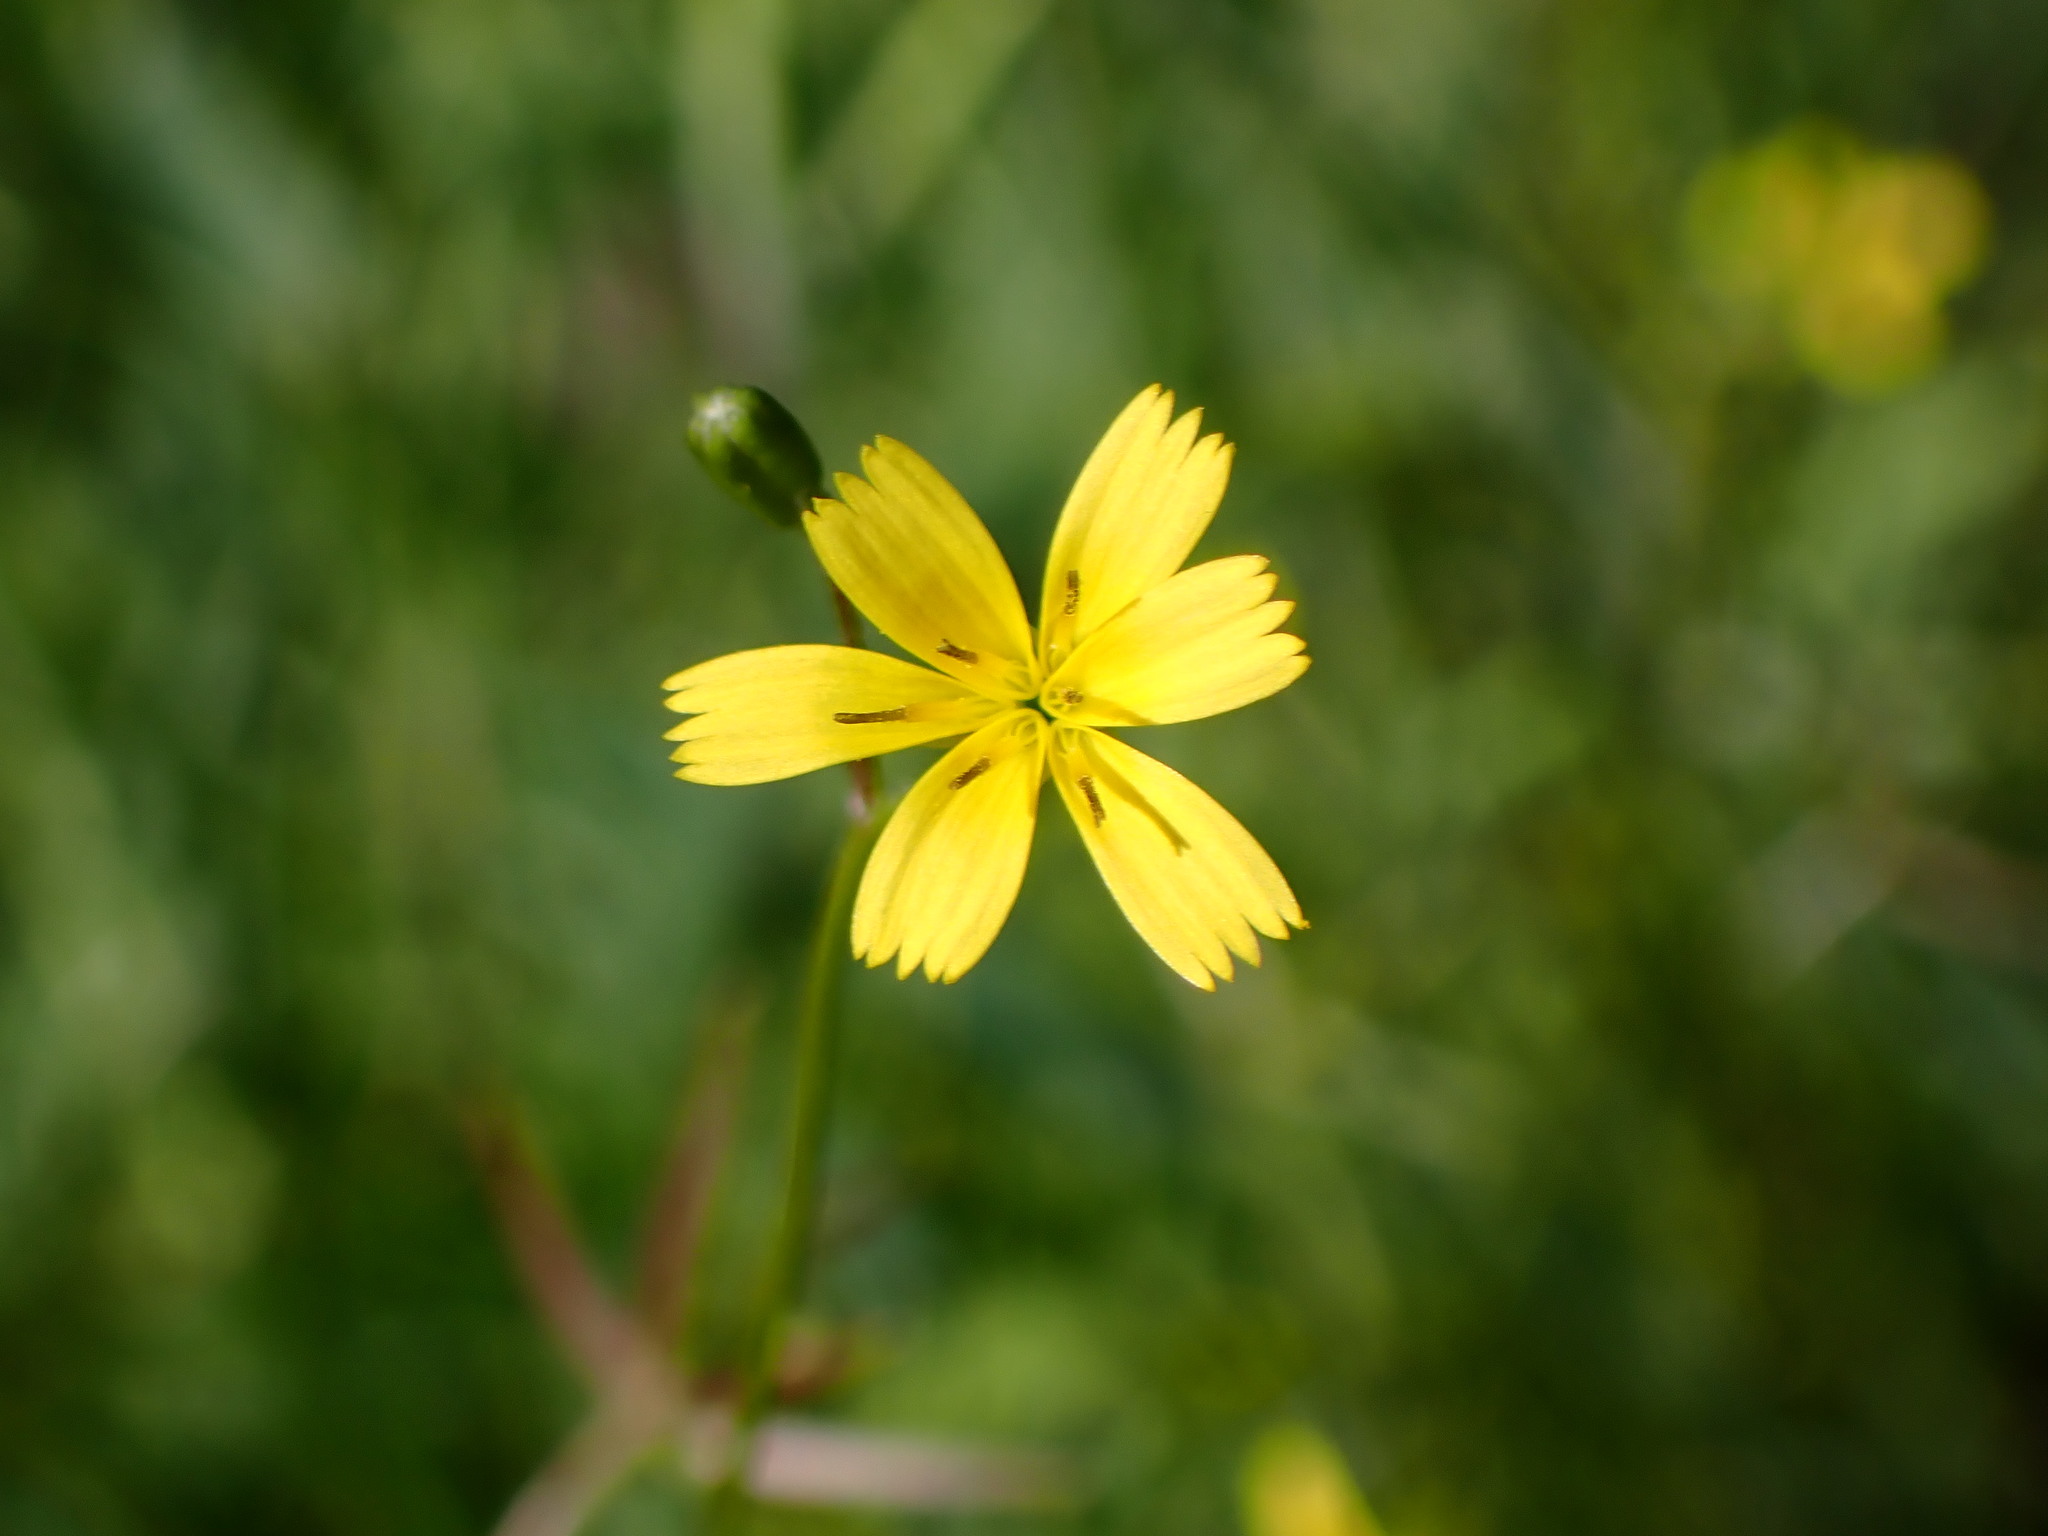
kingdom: Plantae
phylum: Tracheophyta
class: Magnoliopsida
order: Asterales
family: Asteraceae
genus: Rhagadiolus
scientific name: Rhagadiolus stellatus
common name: Star hawkbit
